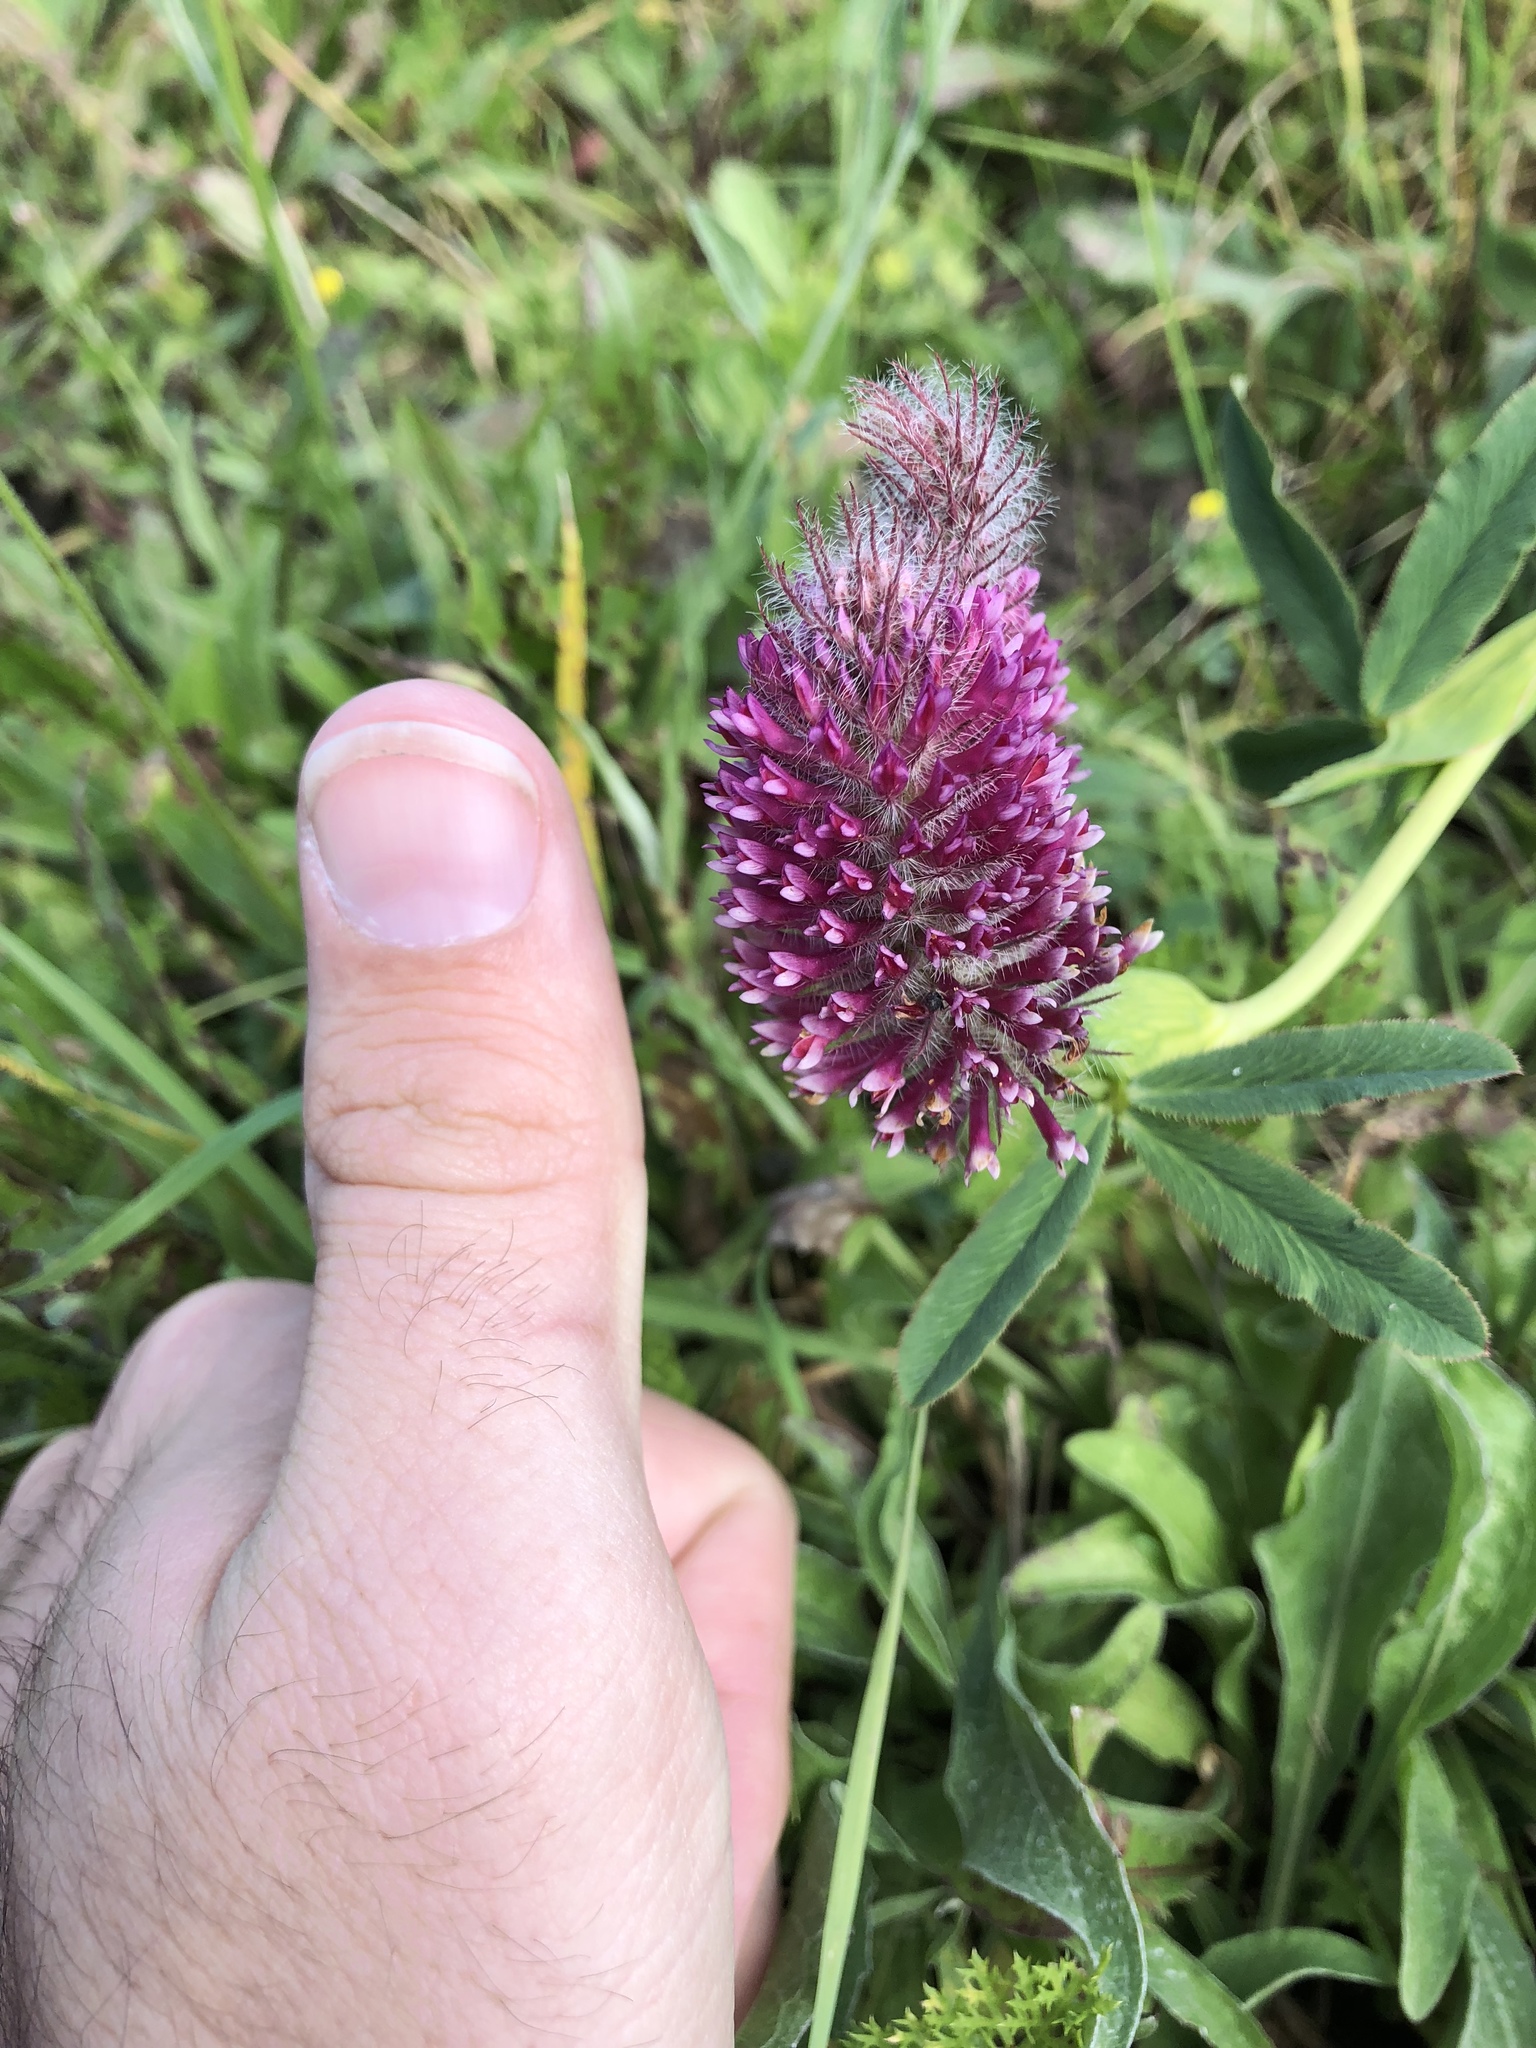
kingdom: Plantae
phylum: Tracheophyta
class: Magnoliopsida
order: Fabales
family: Fabaceae
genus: Trifolium
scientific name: Trifolium rubens
